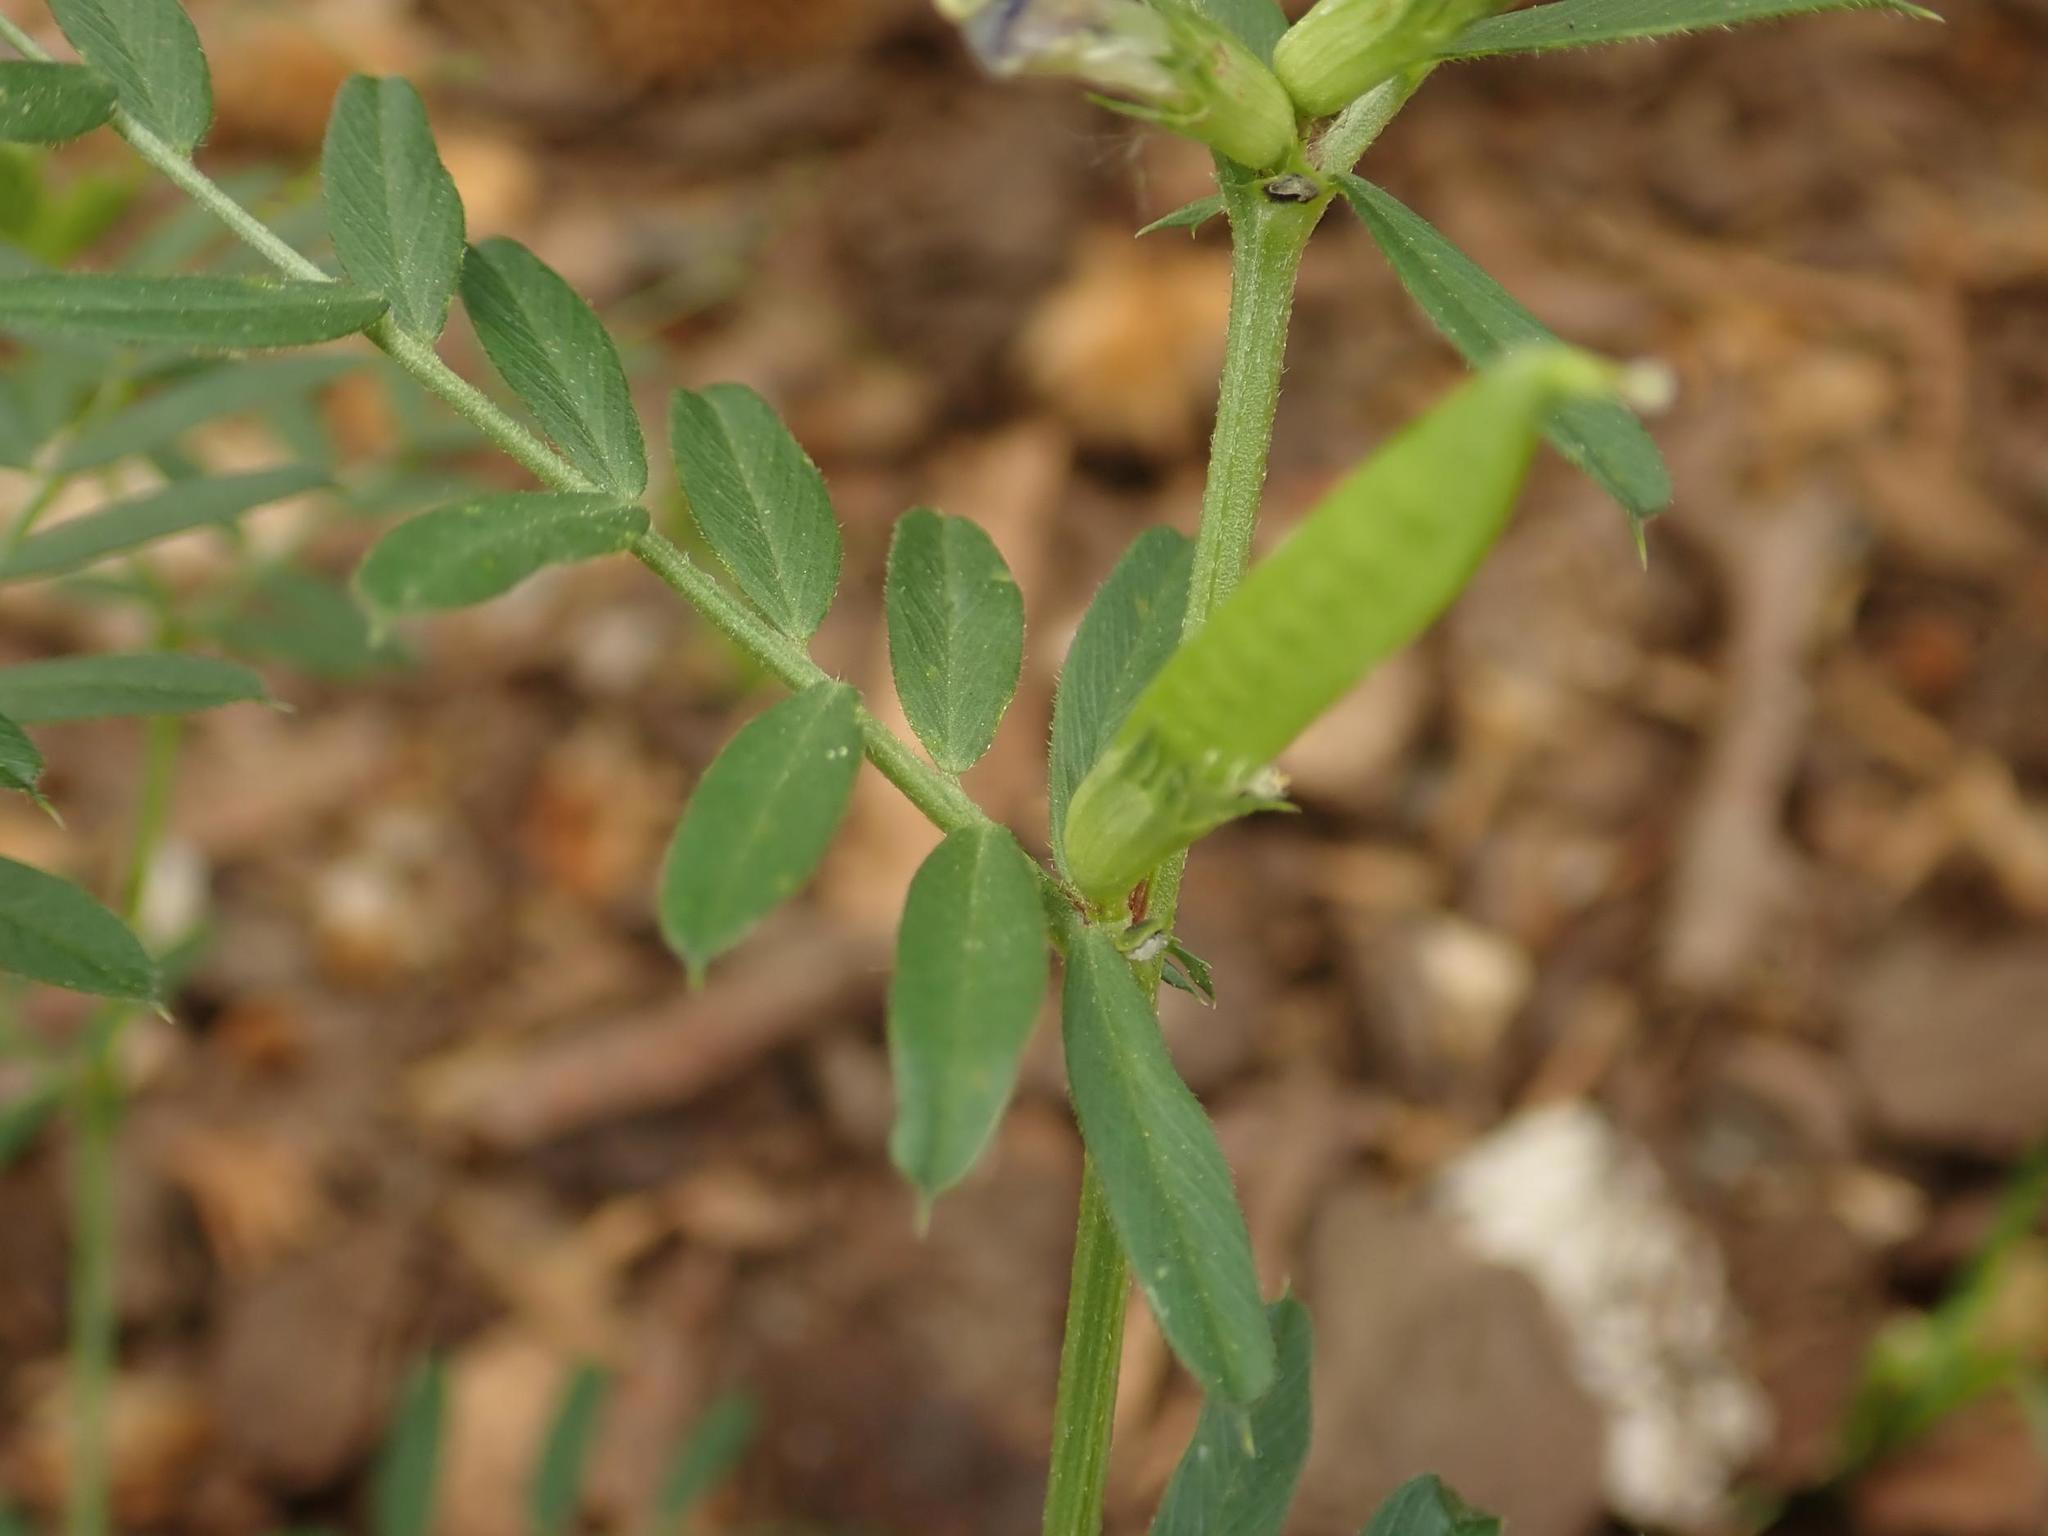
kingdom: Plantae
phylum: Tracheophyta
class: Magnoliopsida
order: Fabales
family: Fabaceae
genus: Vicia
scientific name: Vicia sativa
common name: Garden vetch
